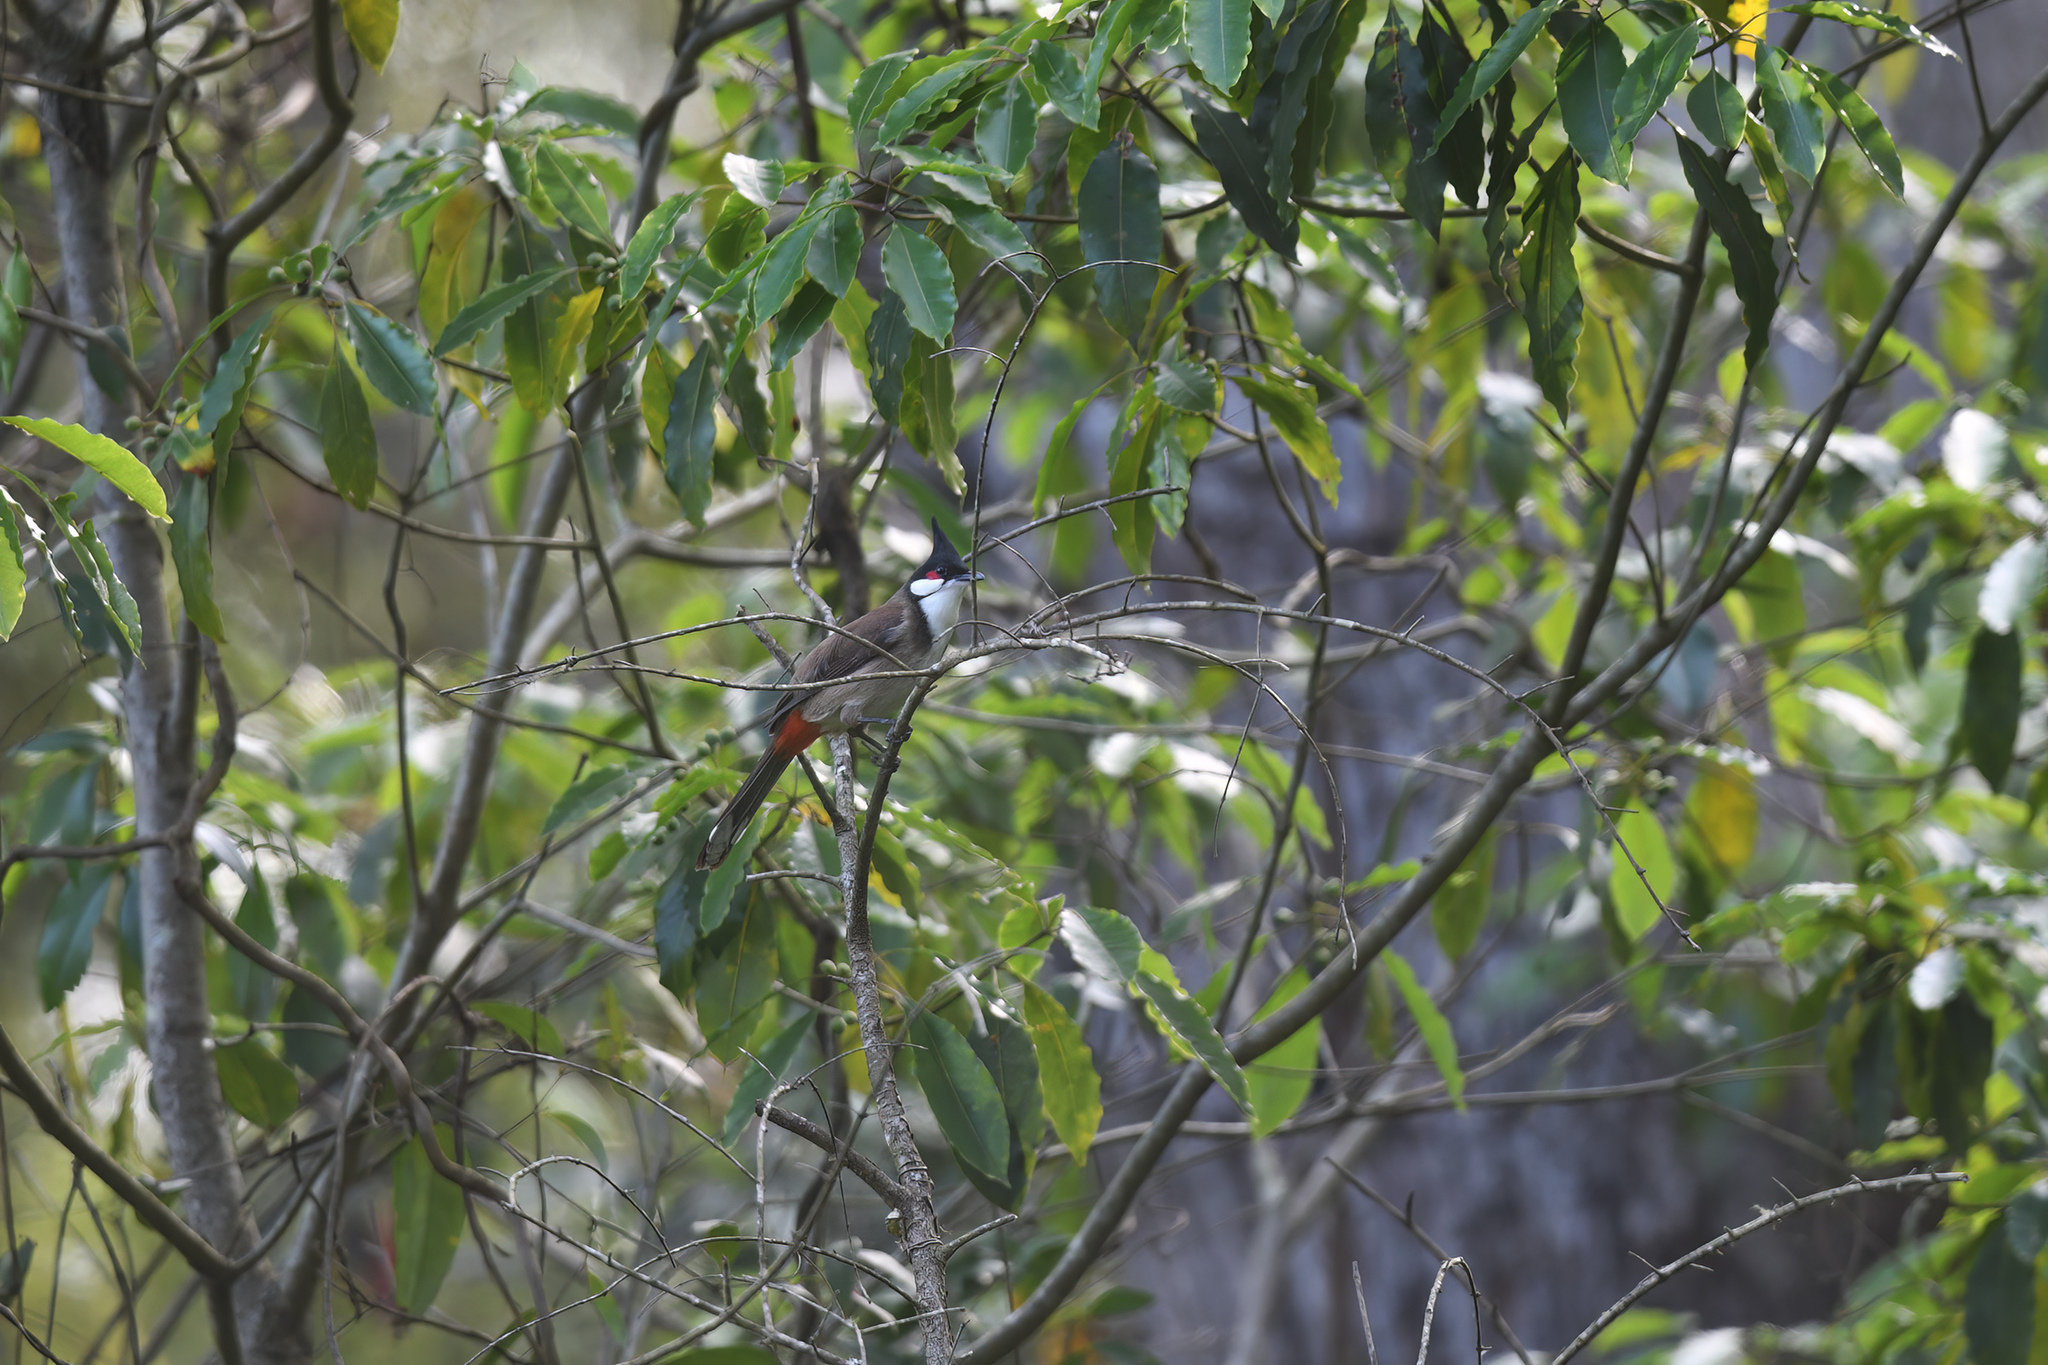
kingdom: Animalia
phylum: Chordata
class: Aves
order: Passeriformes
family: Pycnonotidae
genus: Pycnonotus
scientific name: Pycnonotus jocosus
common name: Red-whiskered bulbul
